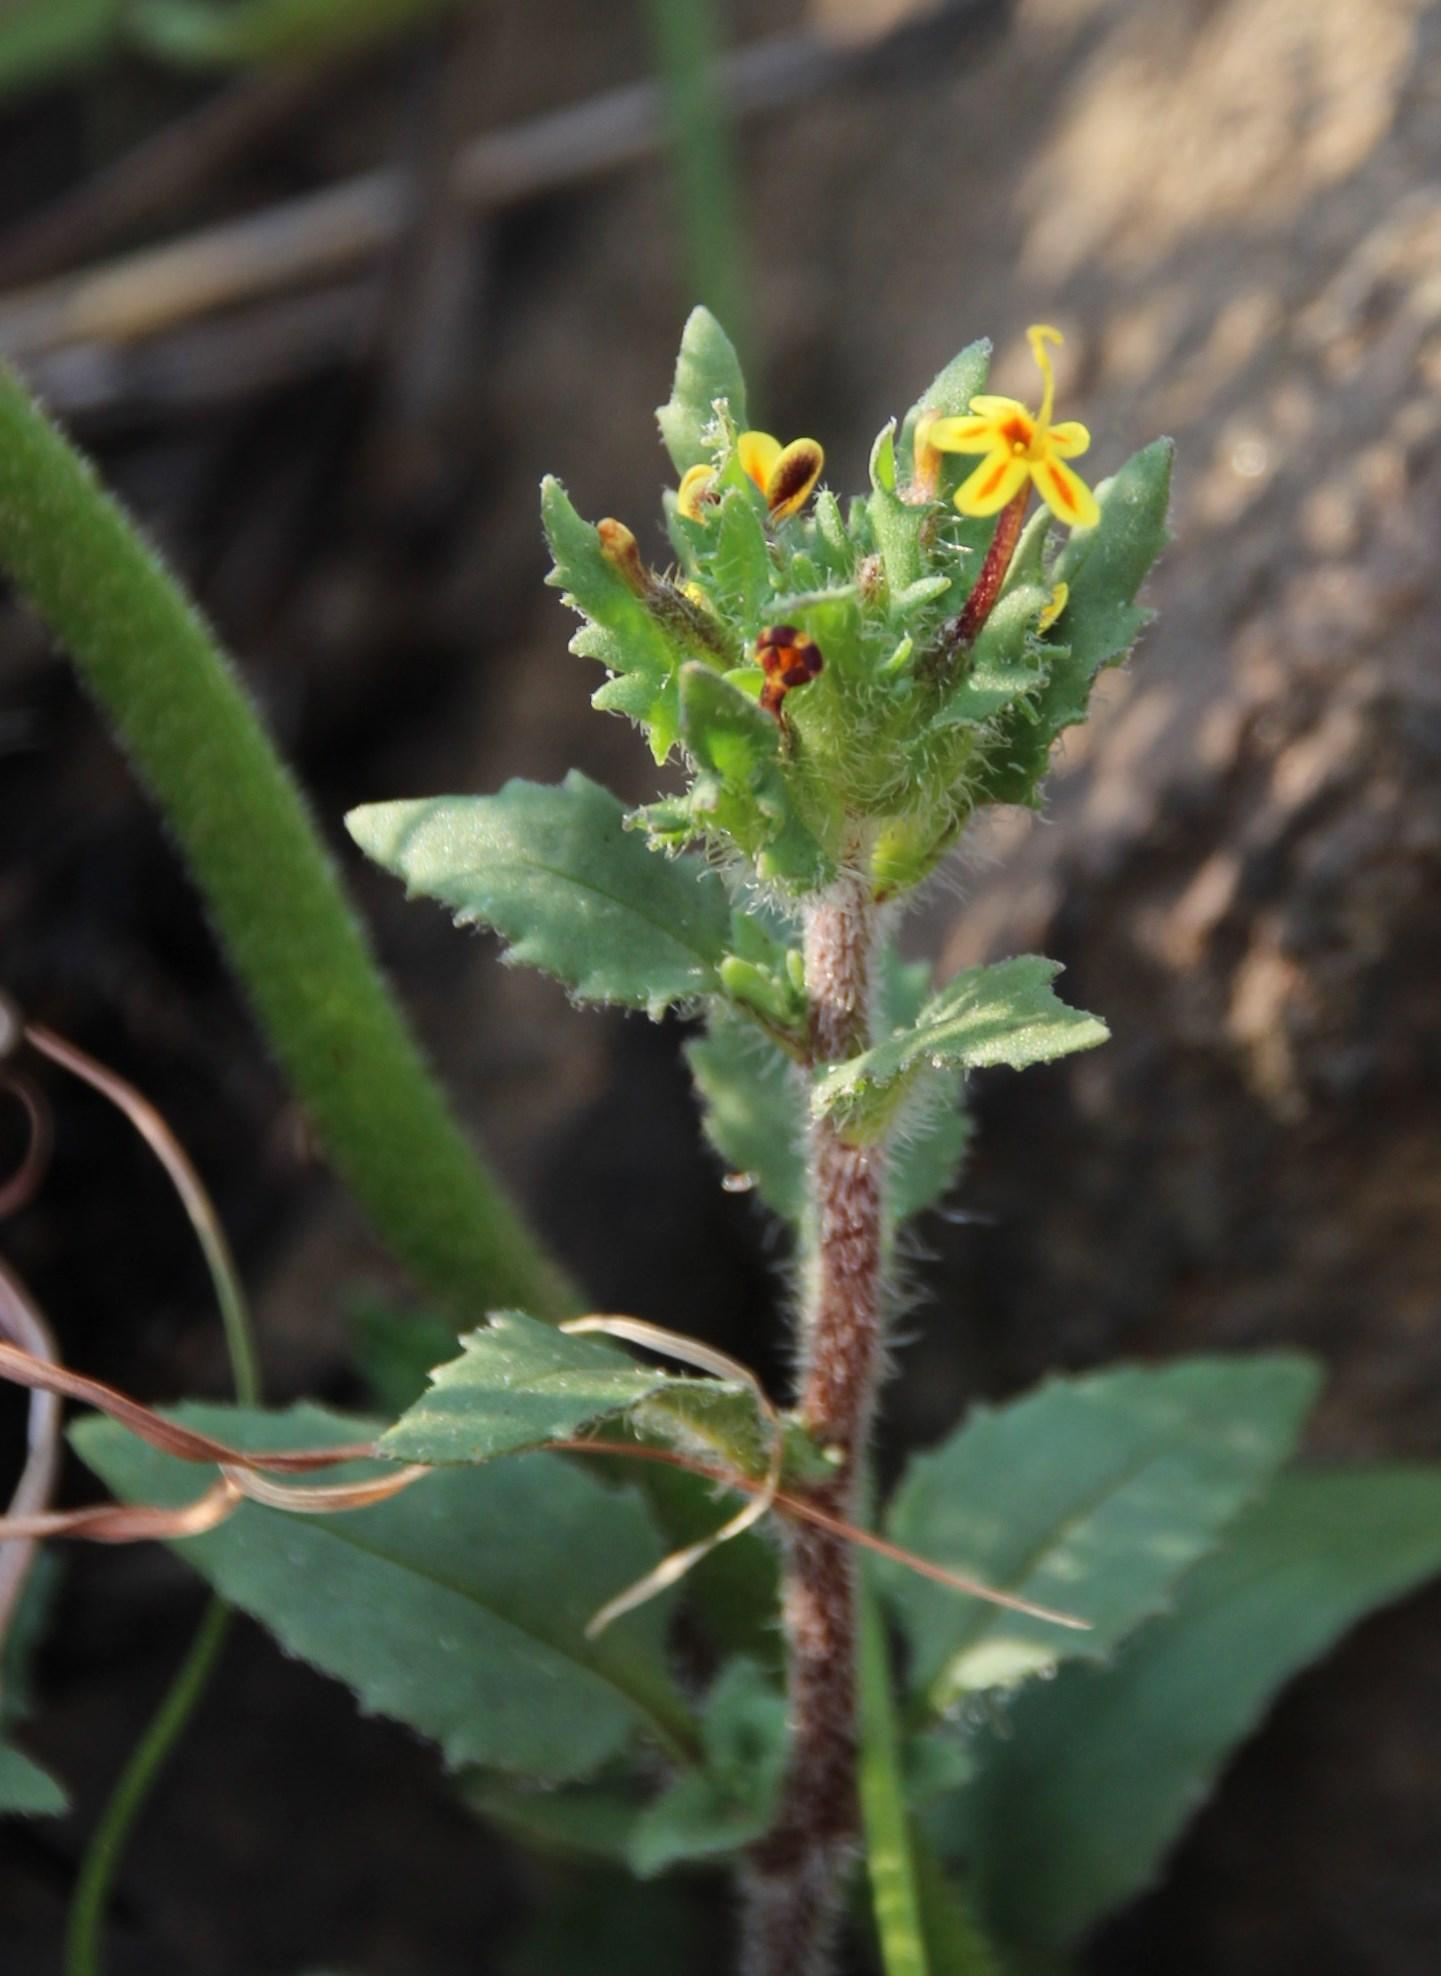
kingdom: Plantae
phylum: Tracheophyta
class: Magnoliopsida
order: Lamiales
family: Scrophulariaceae
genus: Zaluzianskya
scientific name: Zaluzianskya divaricata
